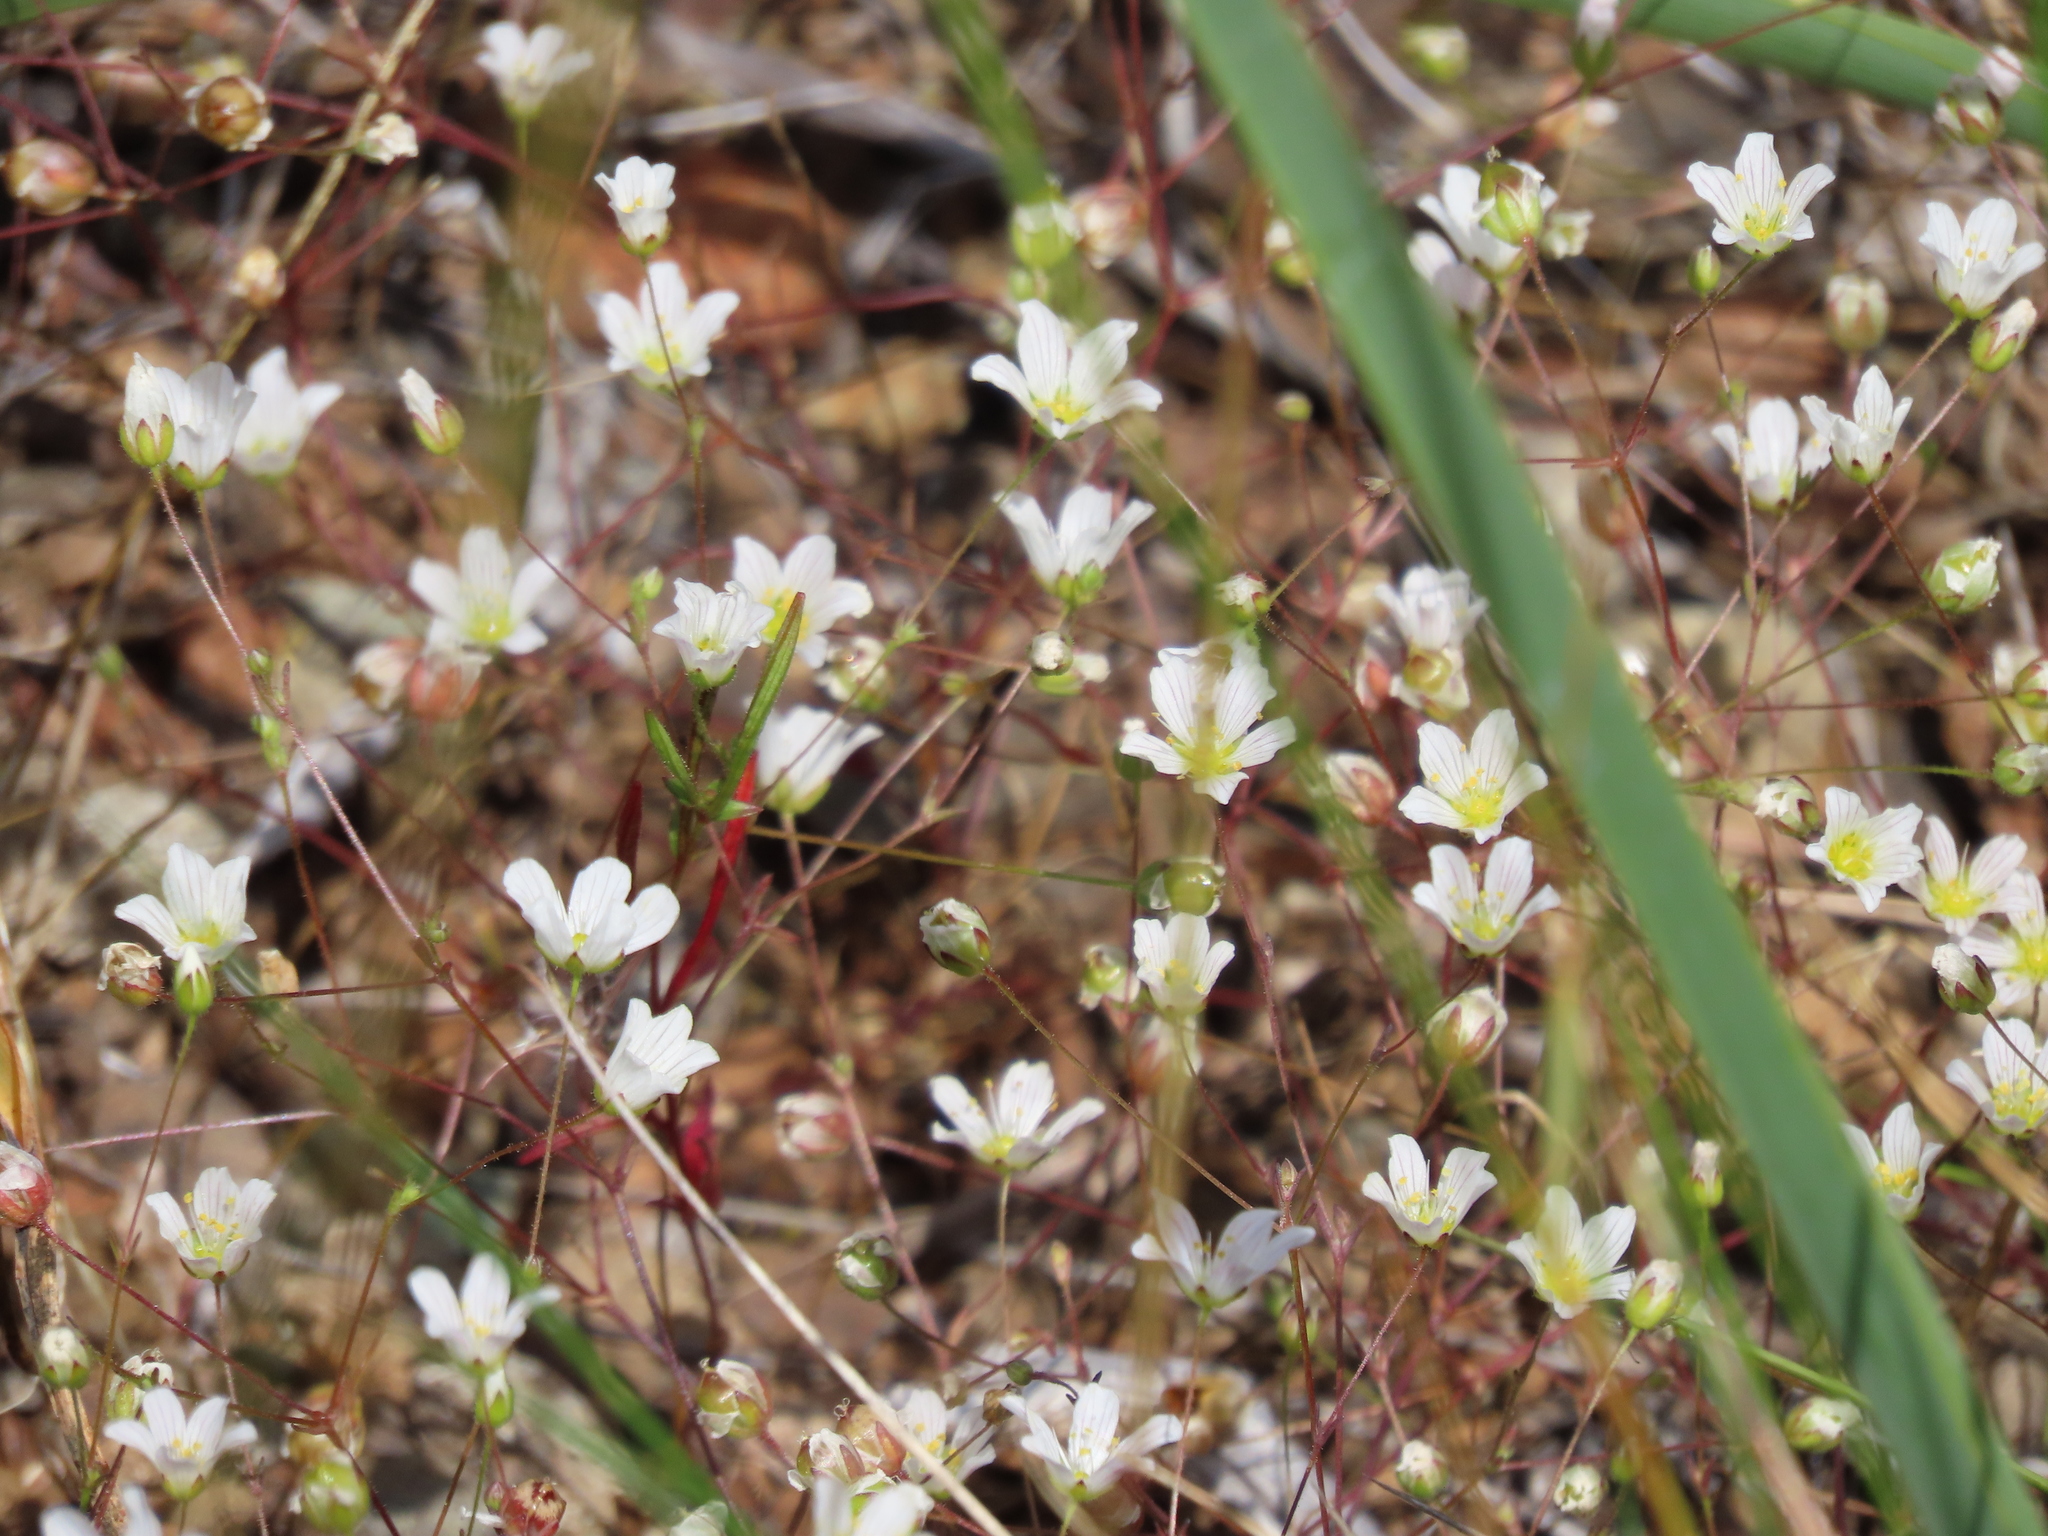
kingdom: Plantae
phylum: Tracheophyta
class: Magnoliopsida
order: Caryophyllales
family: Caryophyllaceae
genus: Sabulina
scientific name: Sabulina douglasii
